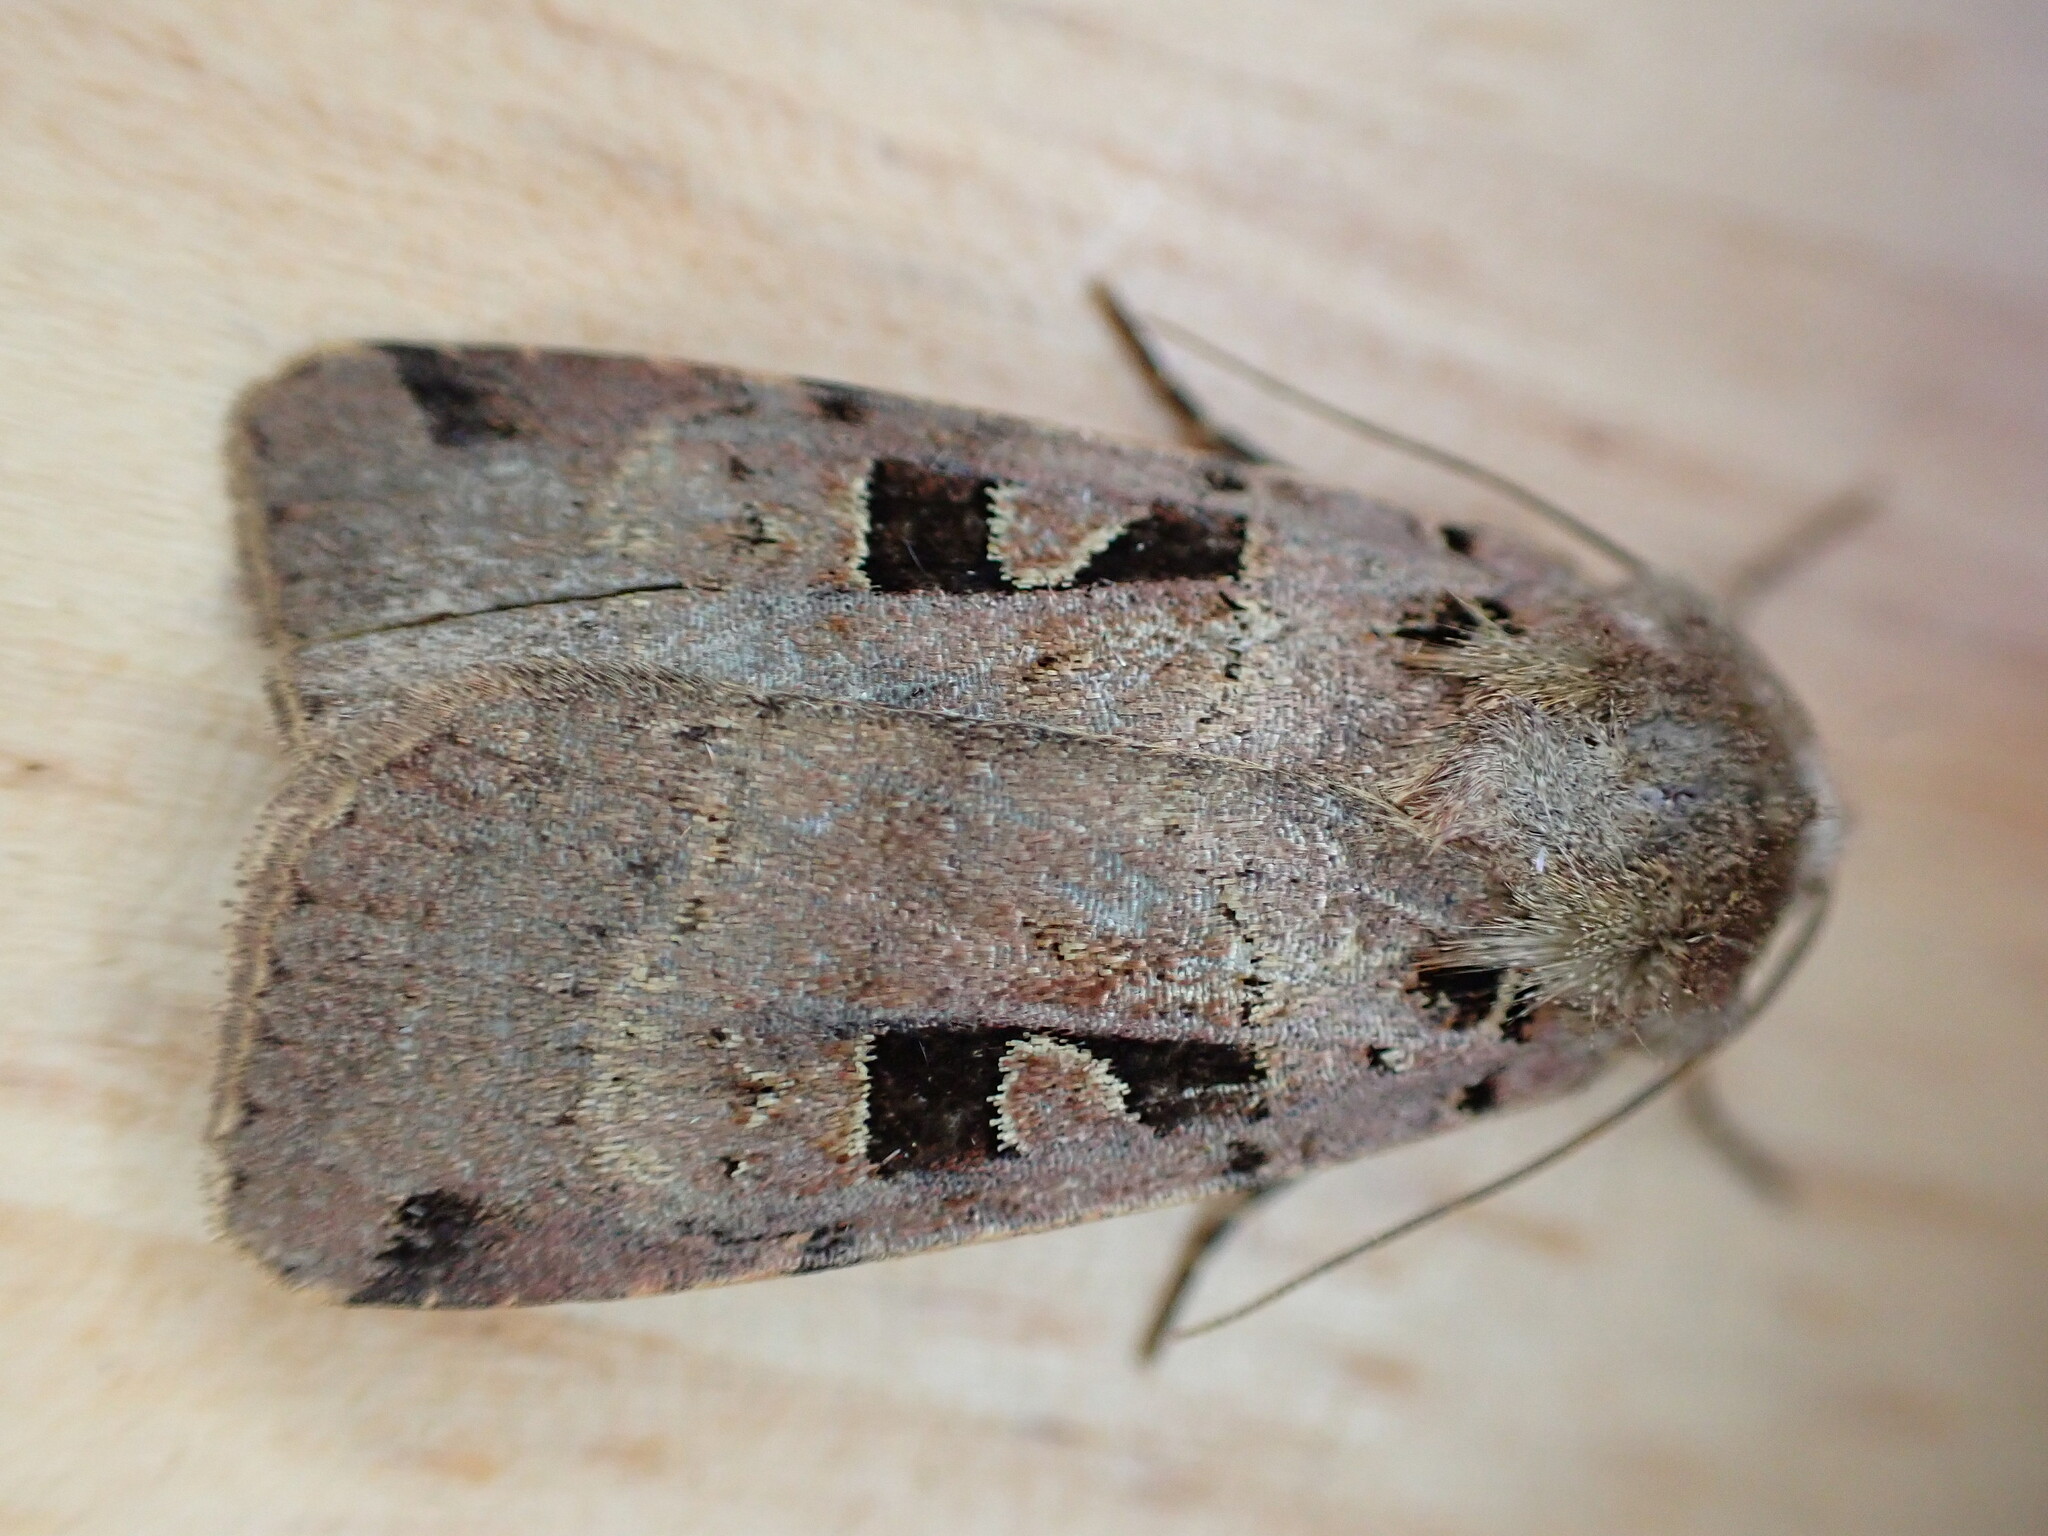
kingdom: Animalia
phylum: Arthropoda
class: Insecta
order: Lepidoptera
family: Noctuidae
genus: Xestia
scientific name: Xestia triangulum
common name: Double square-spot
